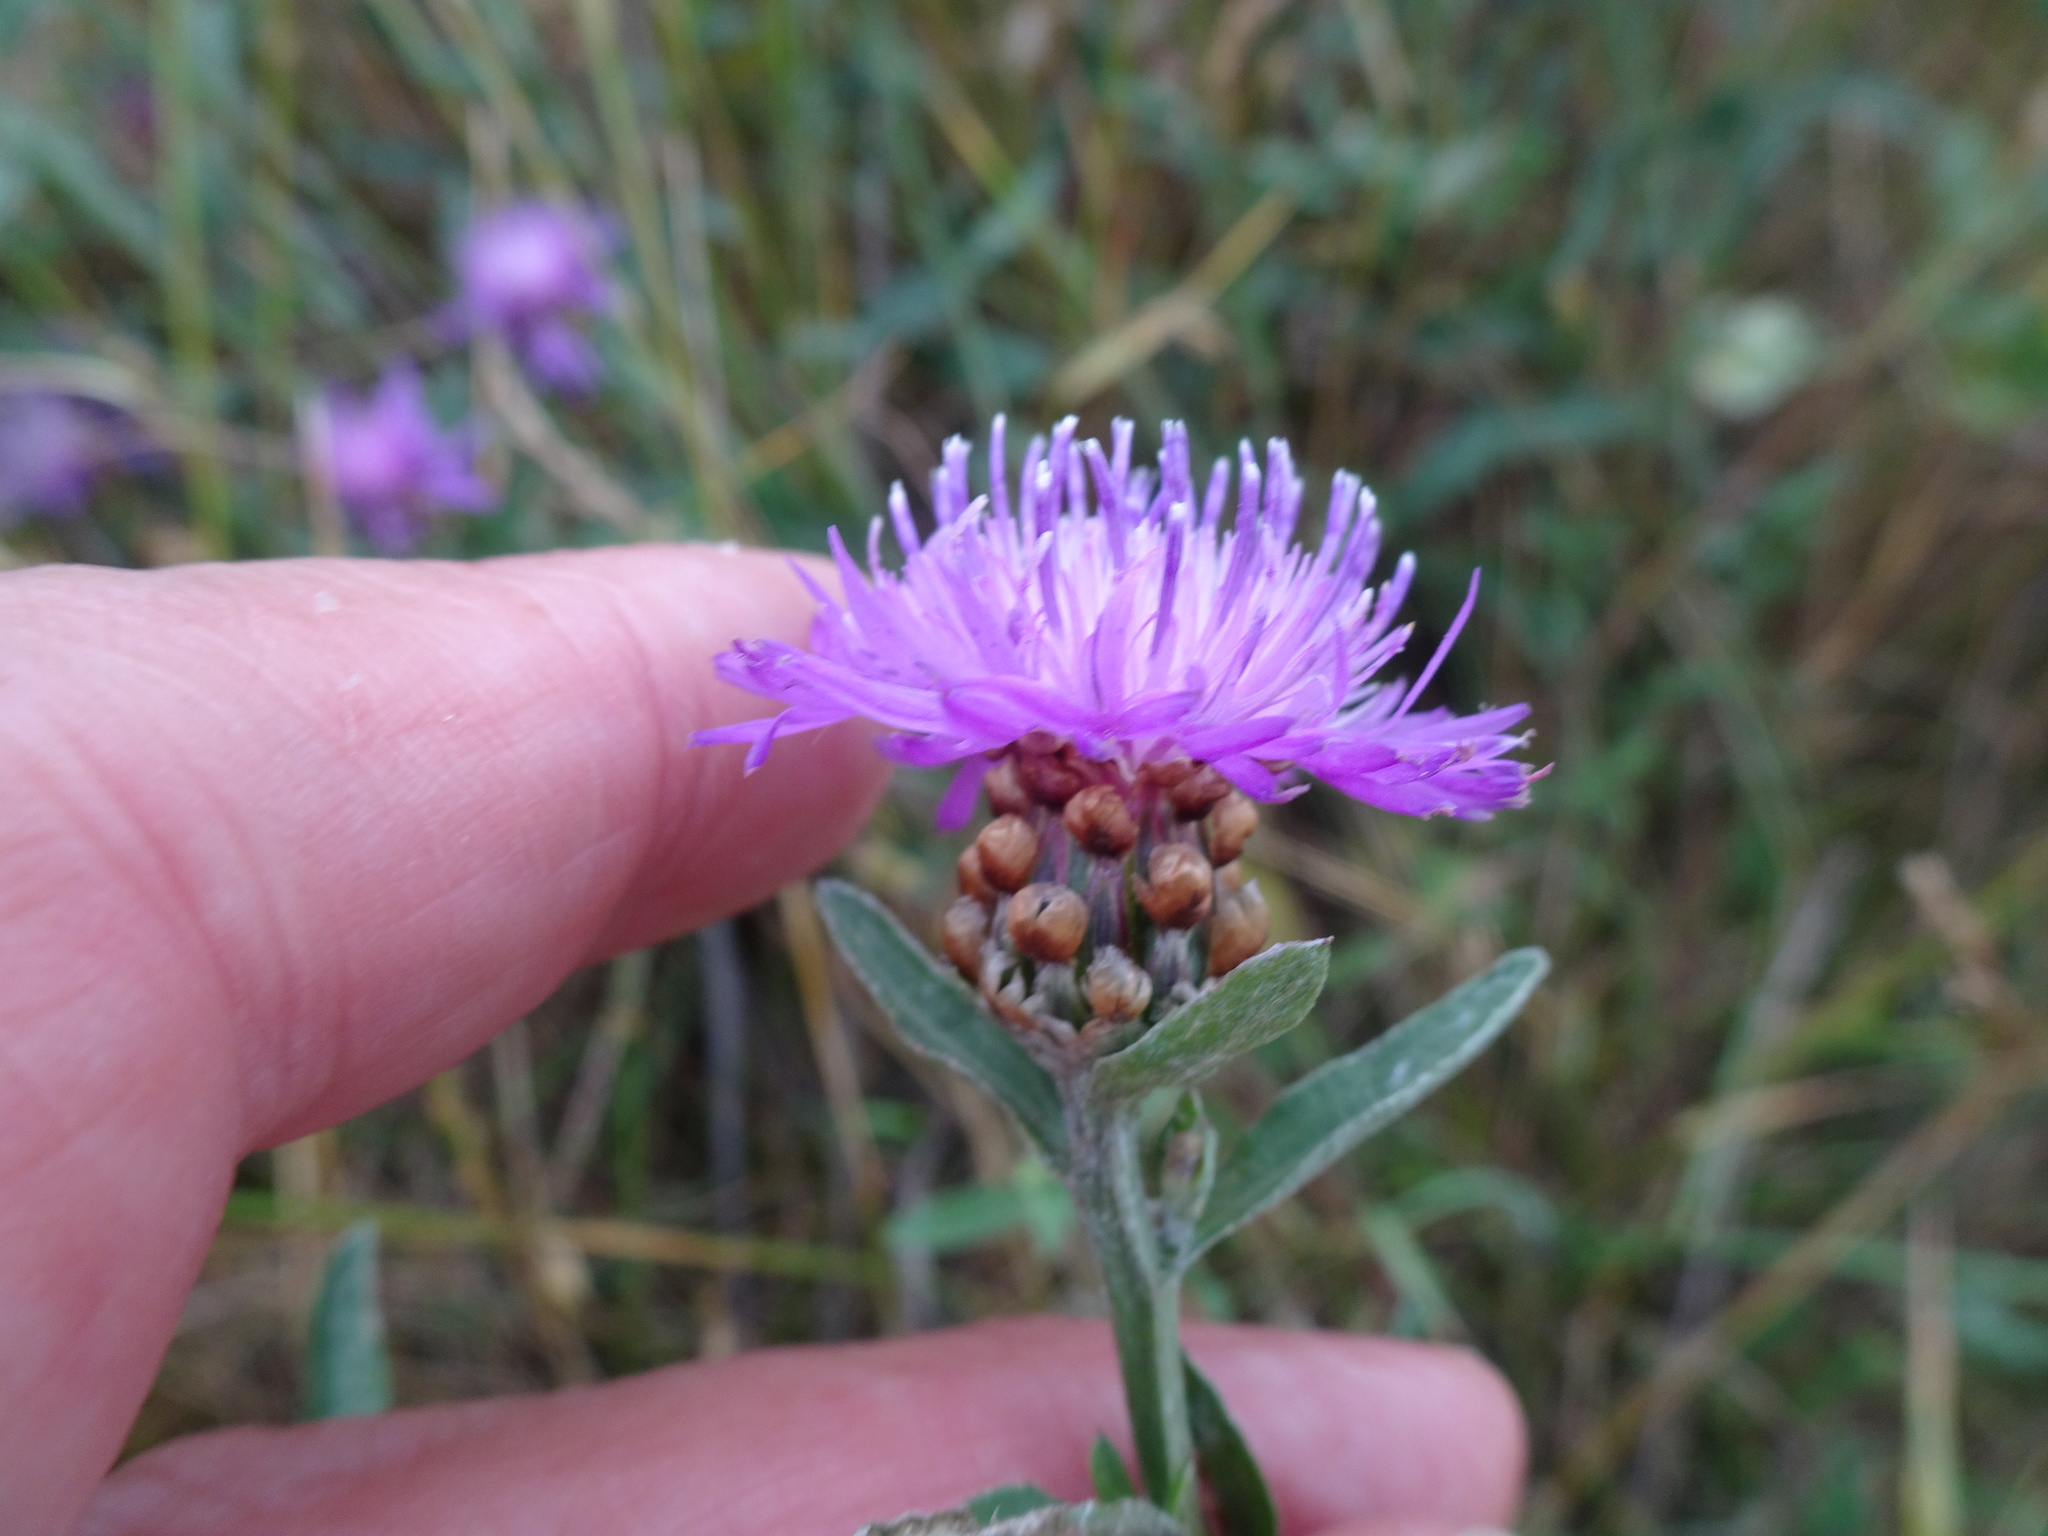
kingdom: Plantae
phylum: Tracheophyta
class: Magnoliopsida
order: Asterales
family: Asteraceae
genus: Centaurea
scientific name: Centaurea jacea
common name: Brown knapweed
